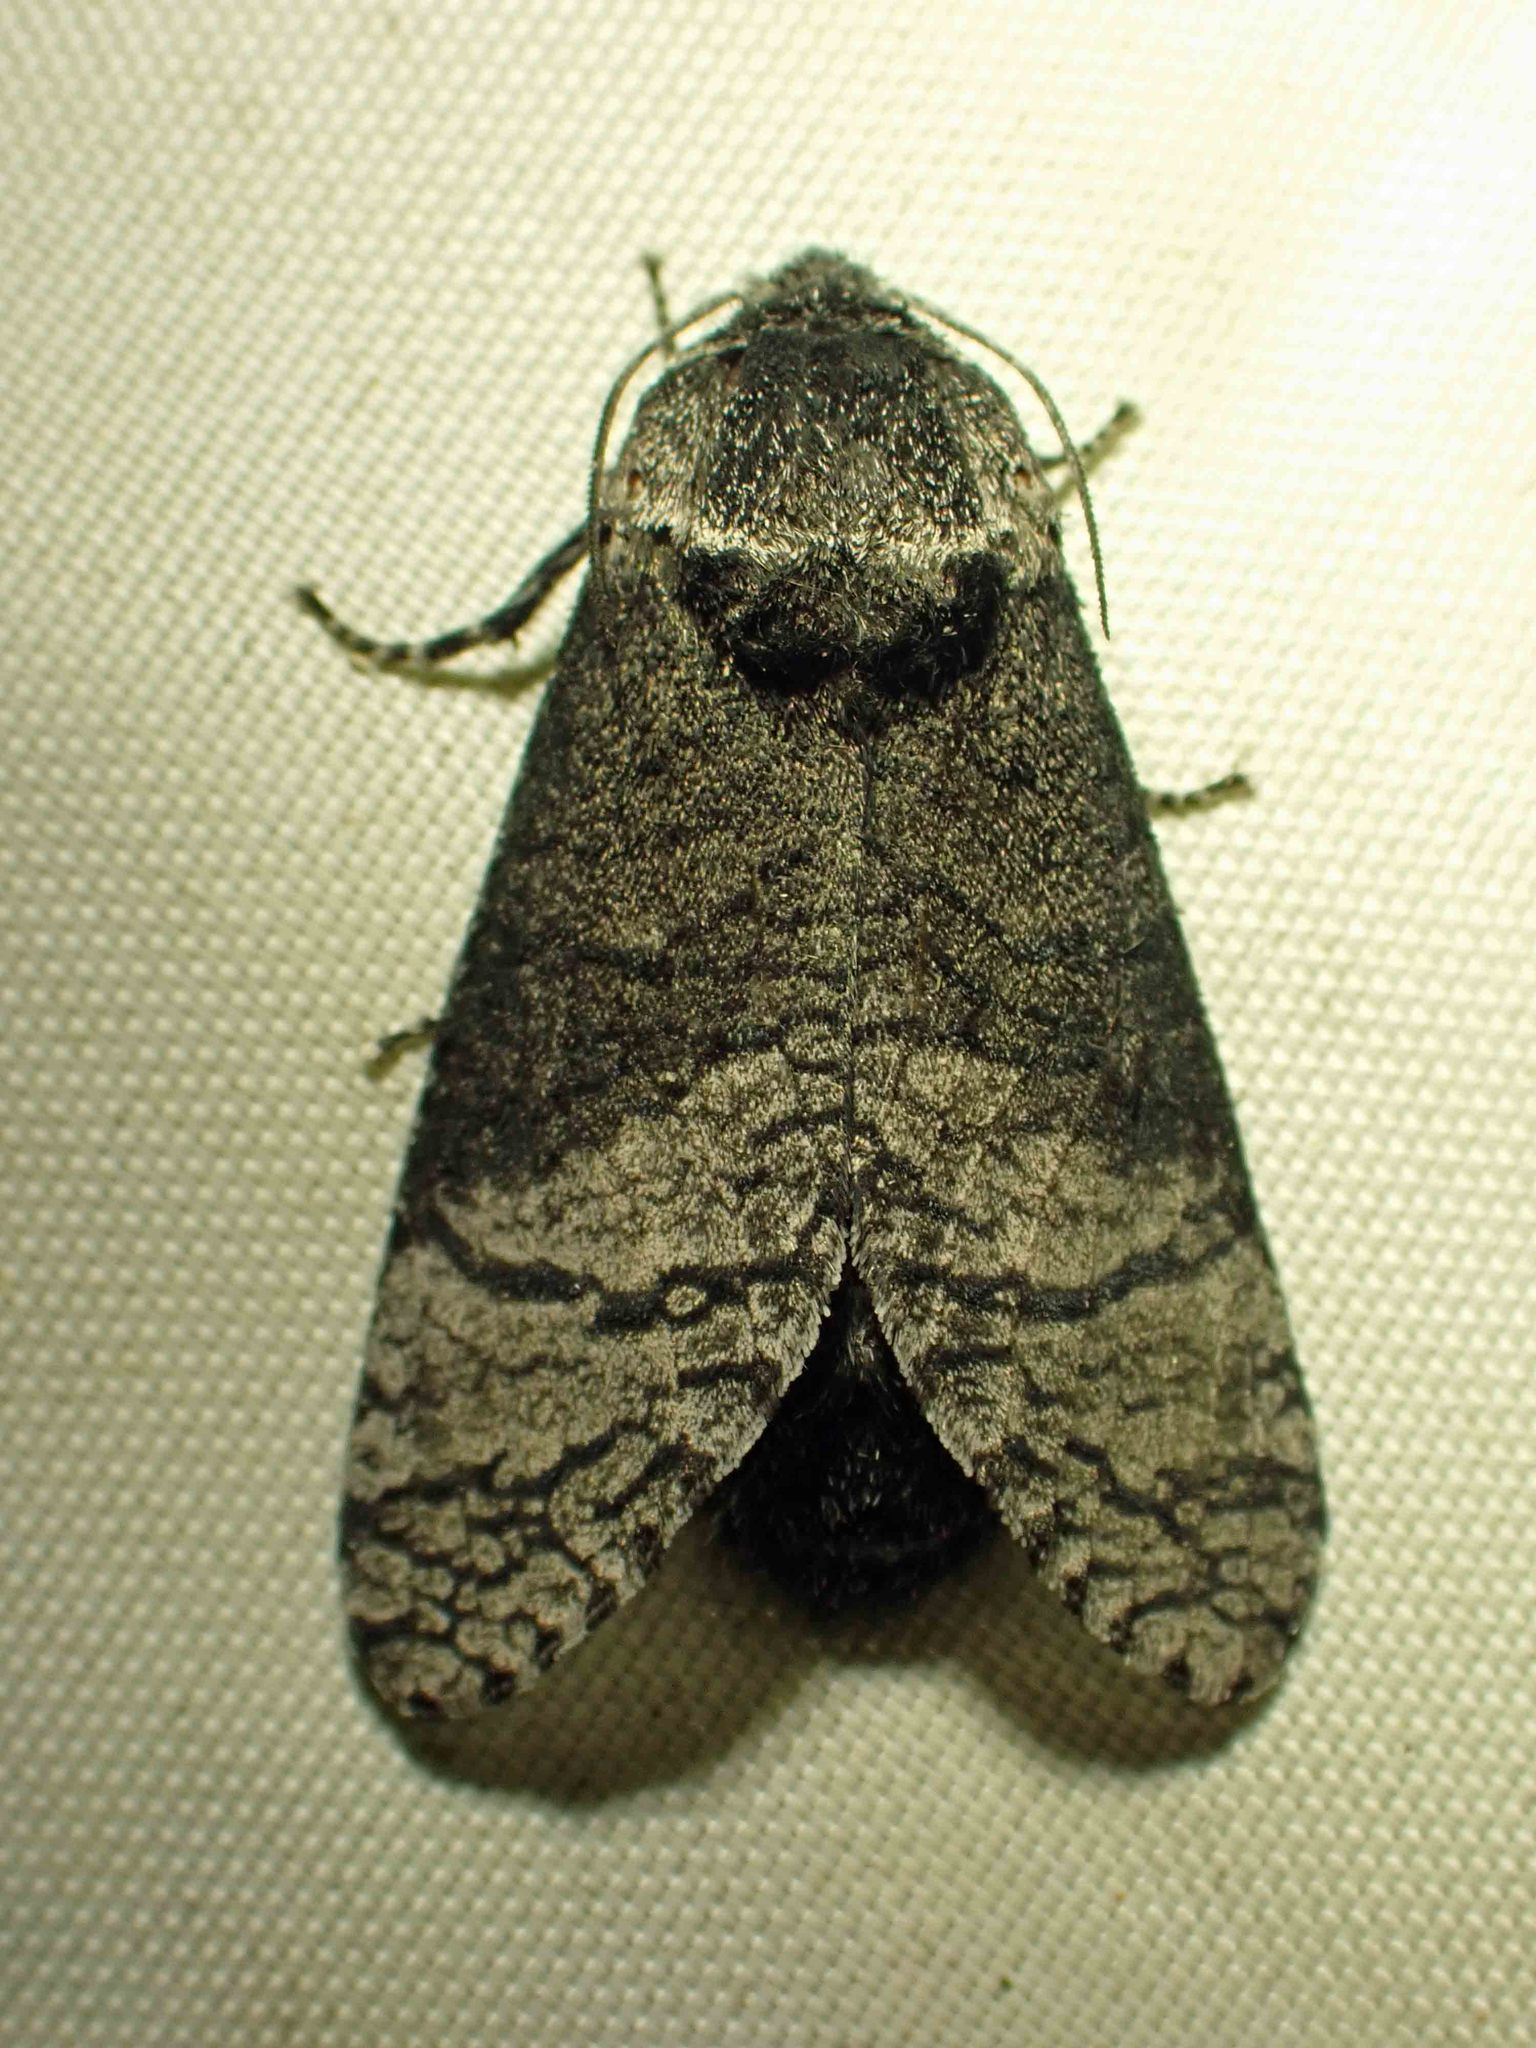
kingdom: Animalia
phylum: Arthropoda
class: Insecta
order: Lepidoptera
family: Cossidae
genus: Acossus
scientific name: Acossus centerensis
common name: Poplar carpenterworm moth
